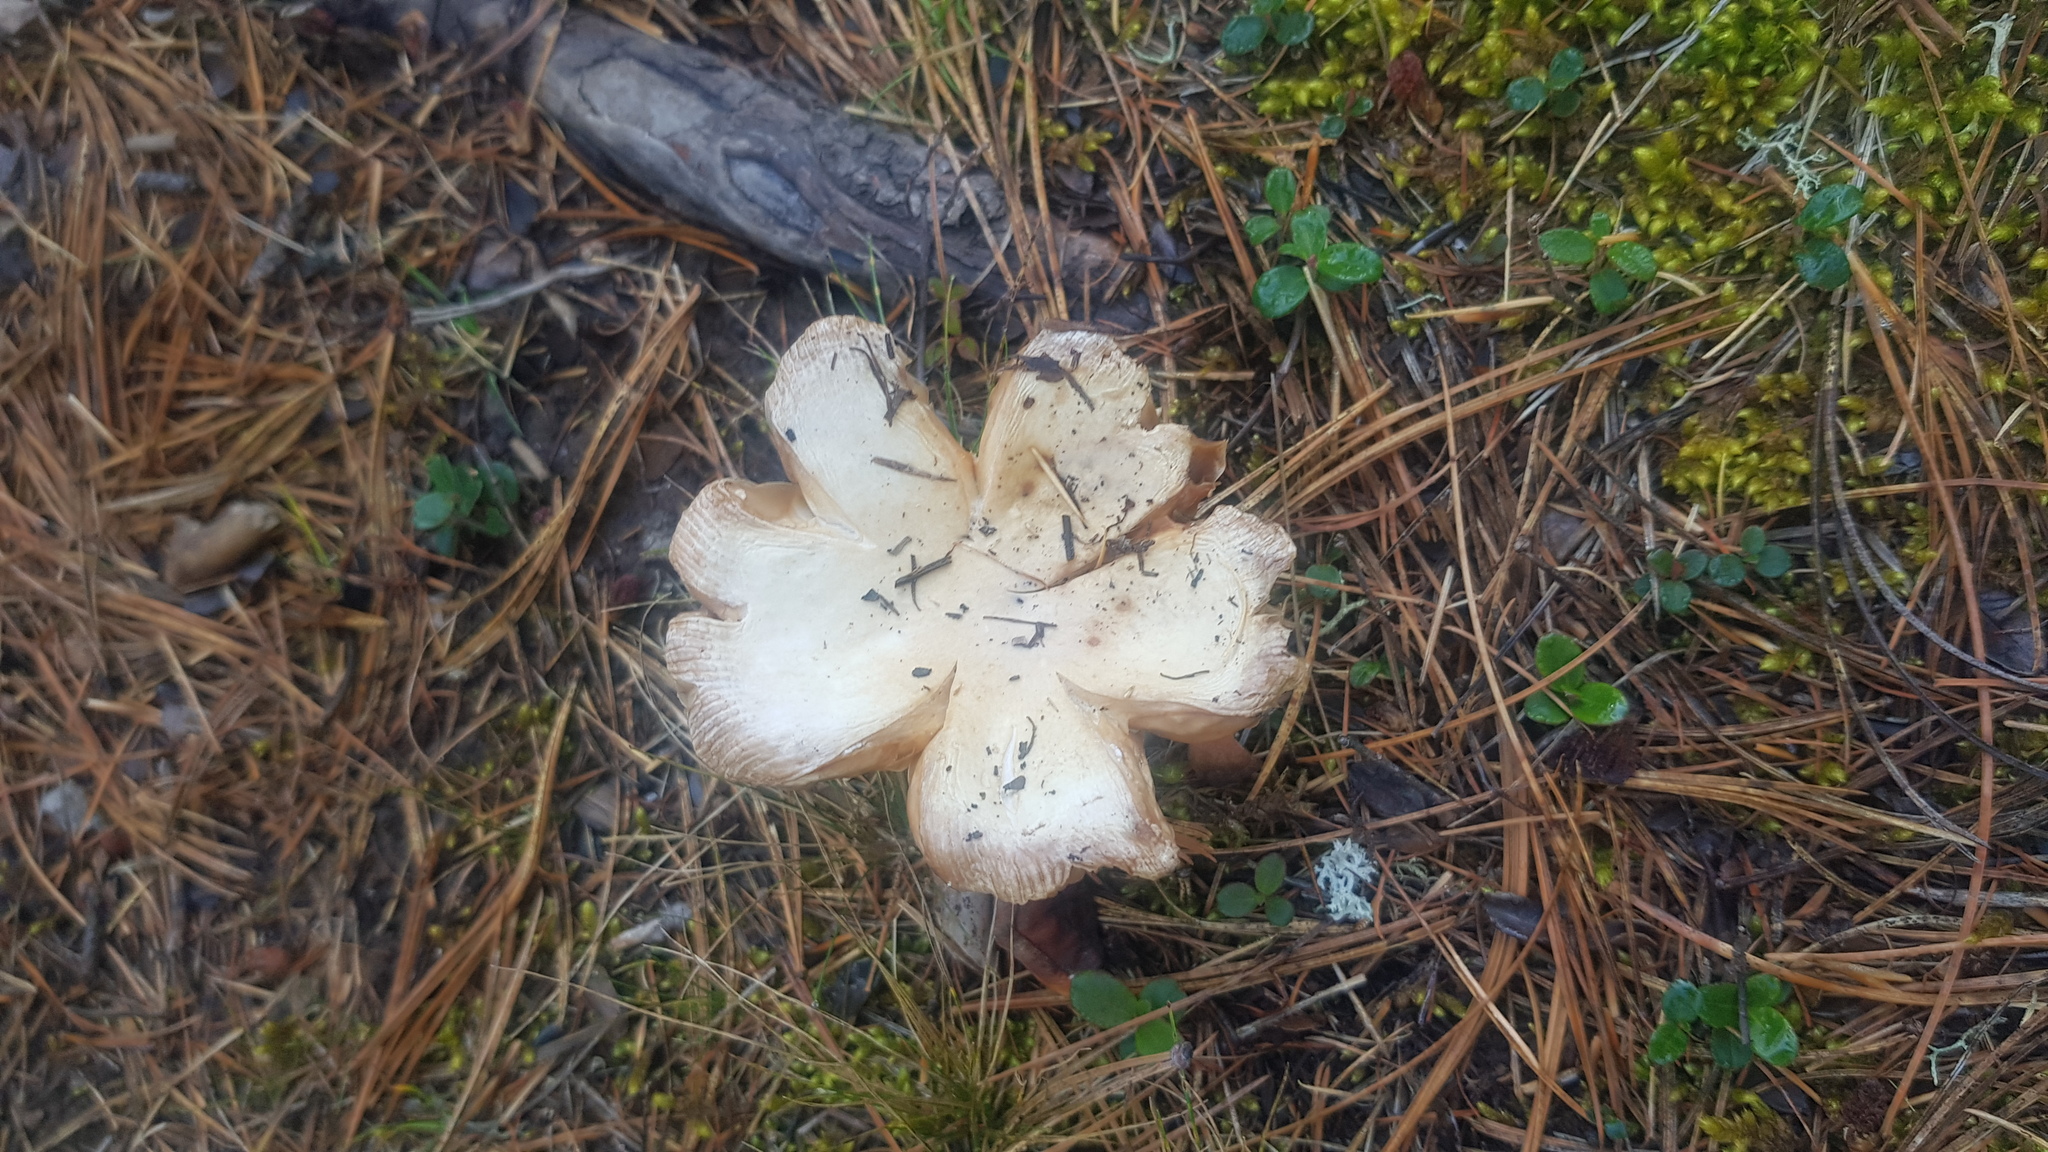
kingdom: Fungi
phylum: Basidiomycota
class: Agaricomycetes
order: Agaricales
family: Amanitaceae
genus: Amanita
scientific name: Amanita xylinivolva
